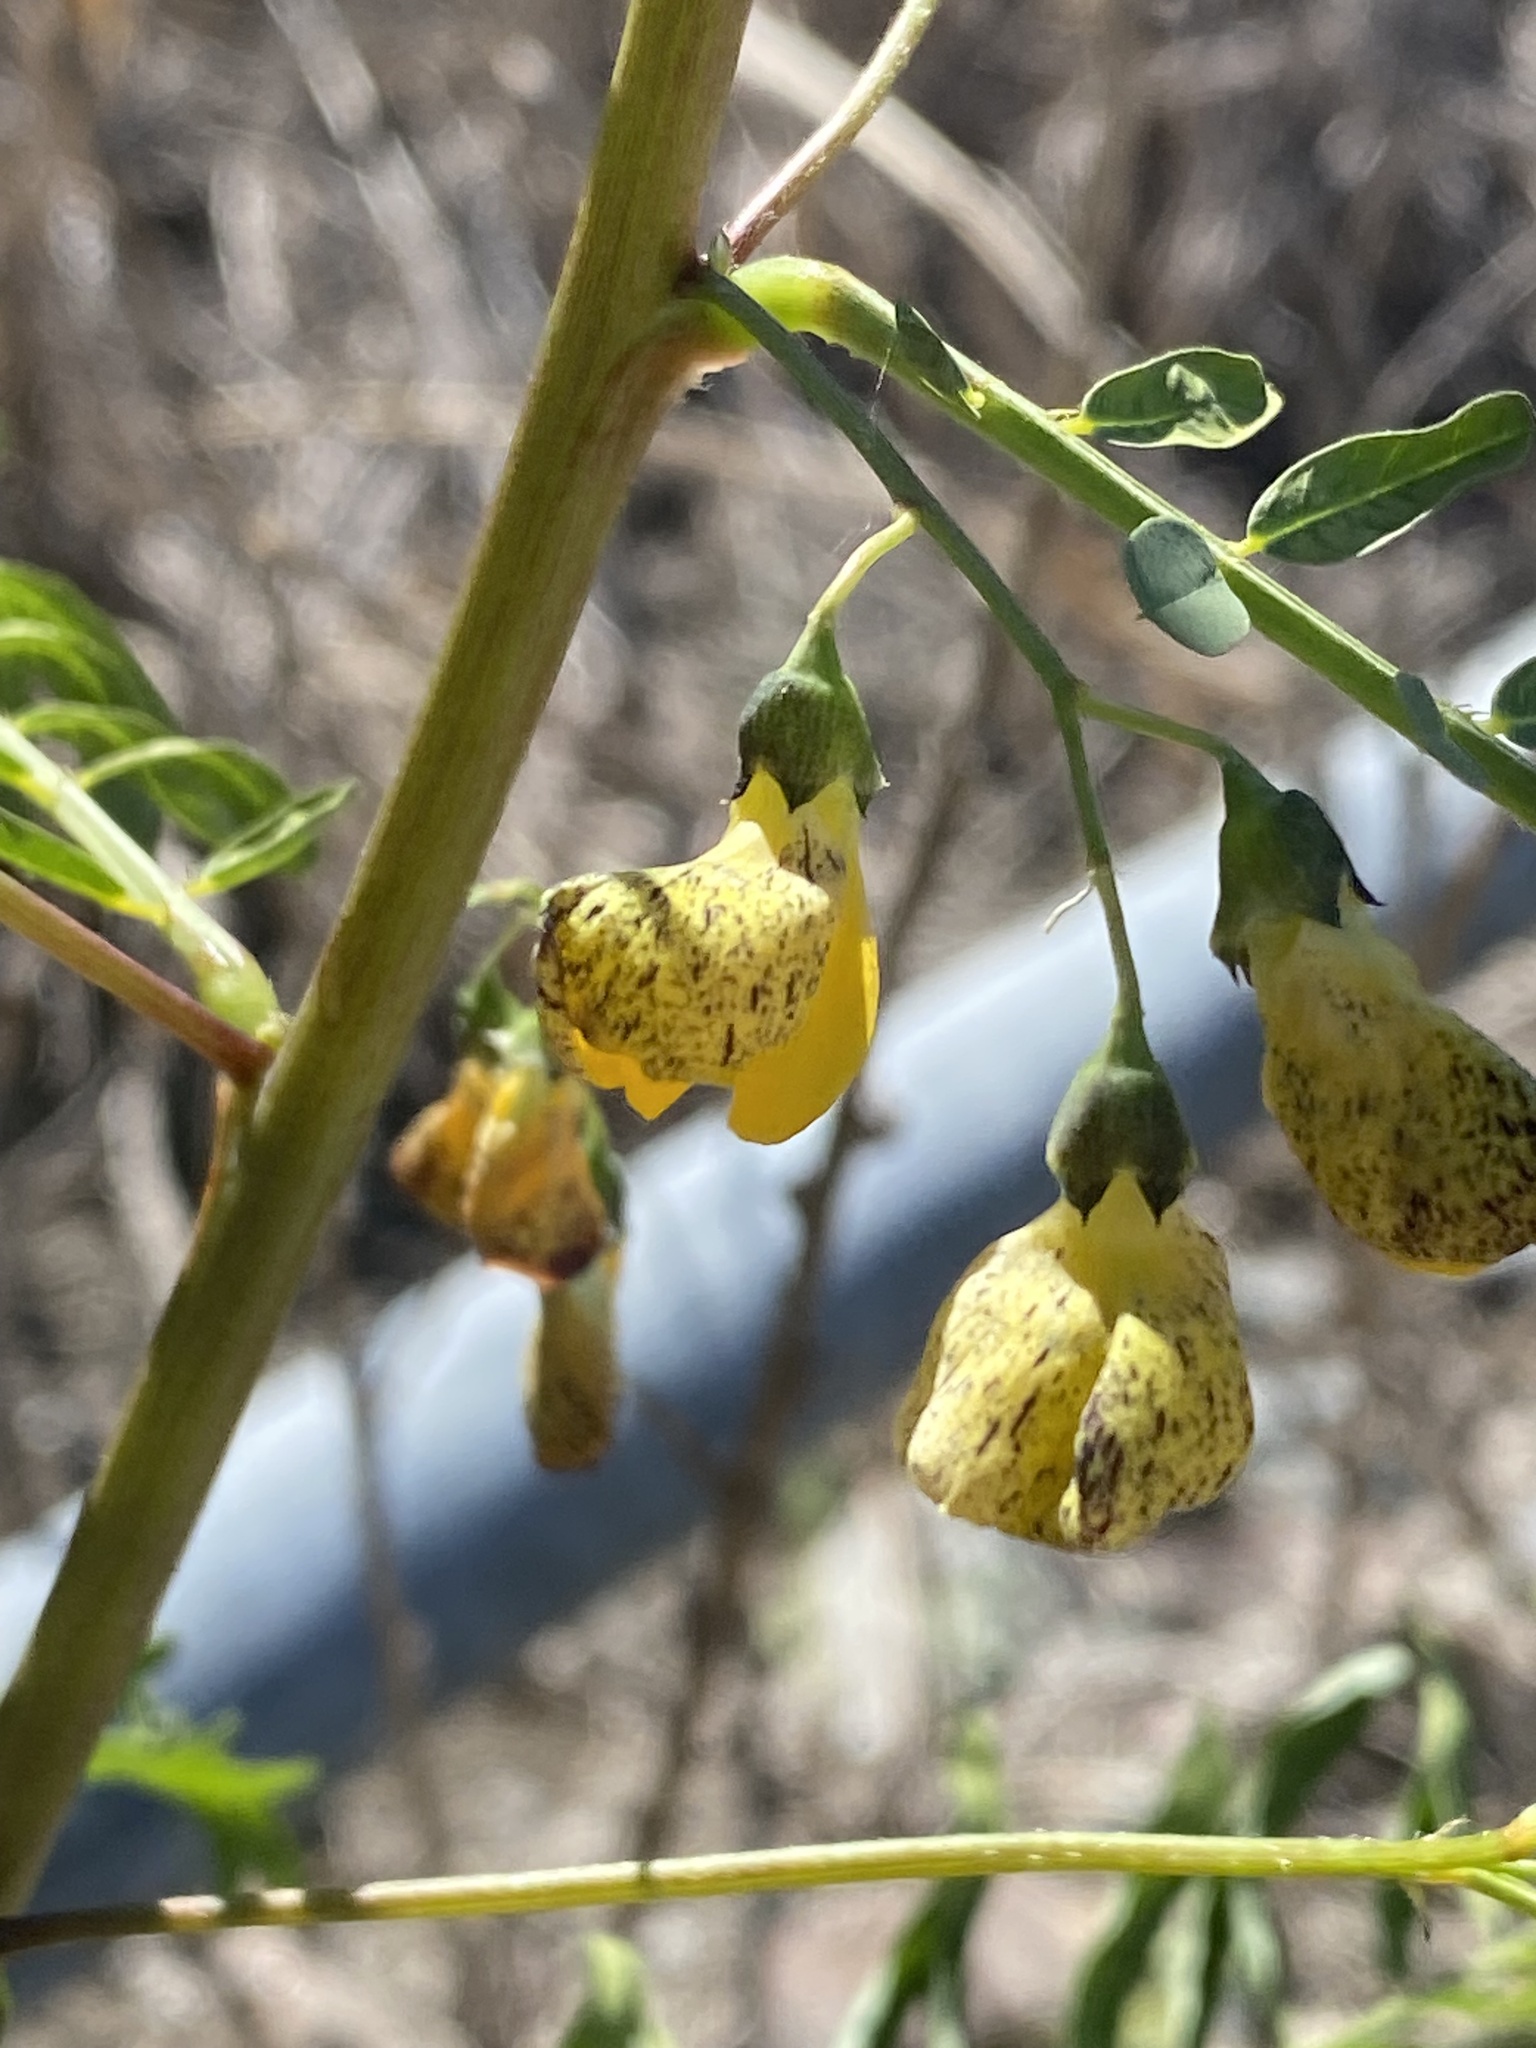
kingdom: Plantae
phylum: Tracheophyta
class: Magnoliopsida
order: Fabales
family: Fabaceae
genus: Sesbania
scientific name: Sesbania cannabina
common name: Canicha
